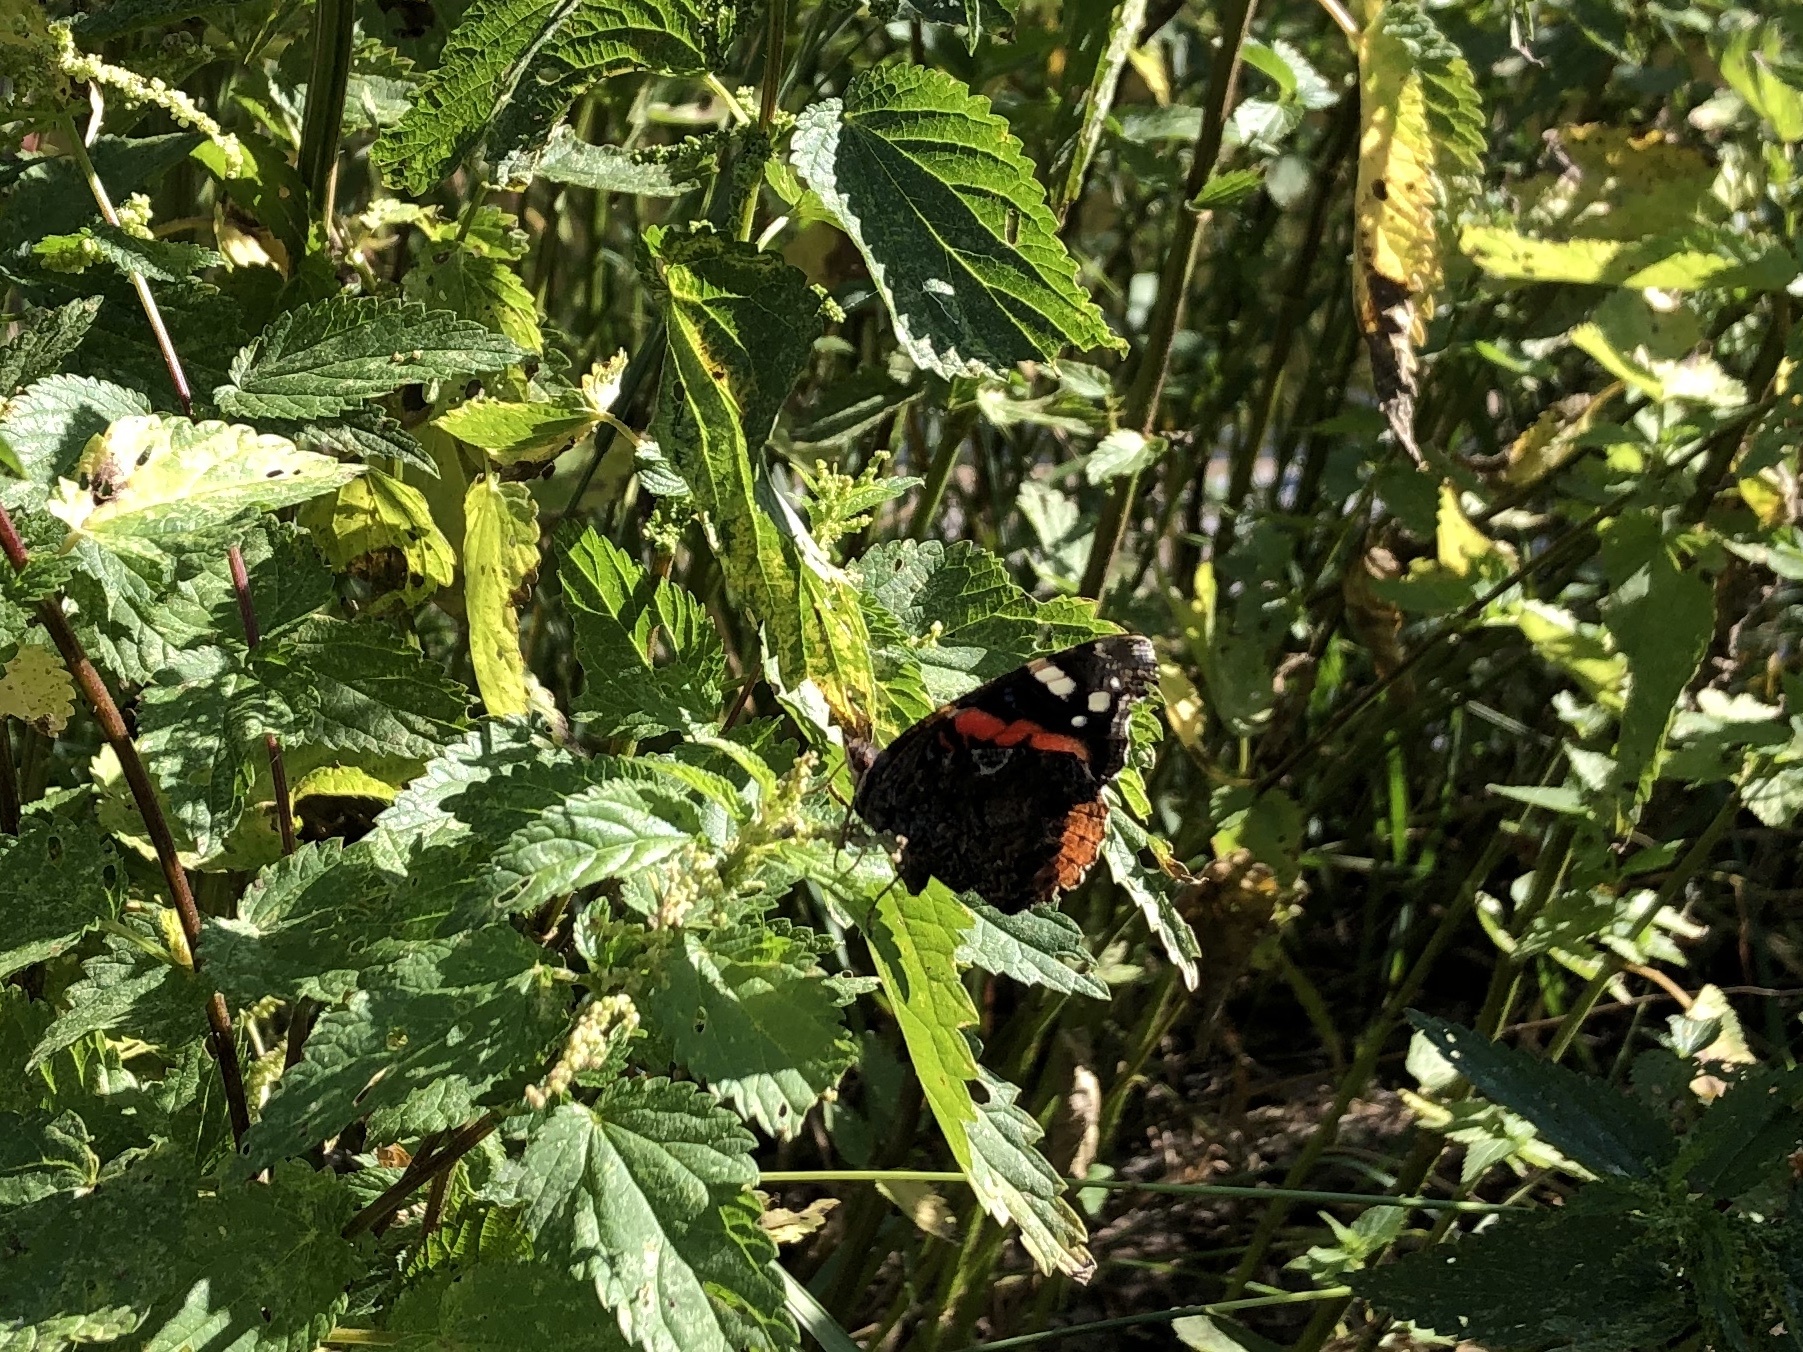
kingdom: Animalia
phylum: Arthropoda
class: Insecta
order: Lepidoptera
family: Nymphalidae
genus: Vanessa
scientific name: Vanessa atalanta
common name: Red admiral
